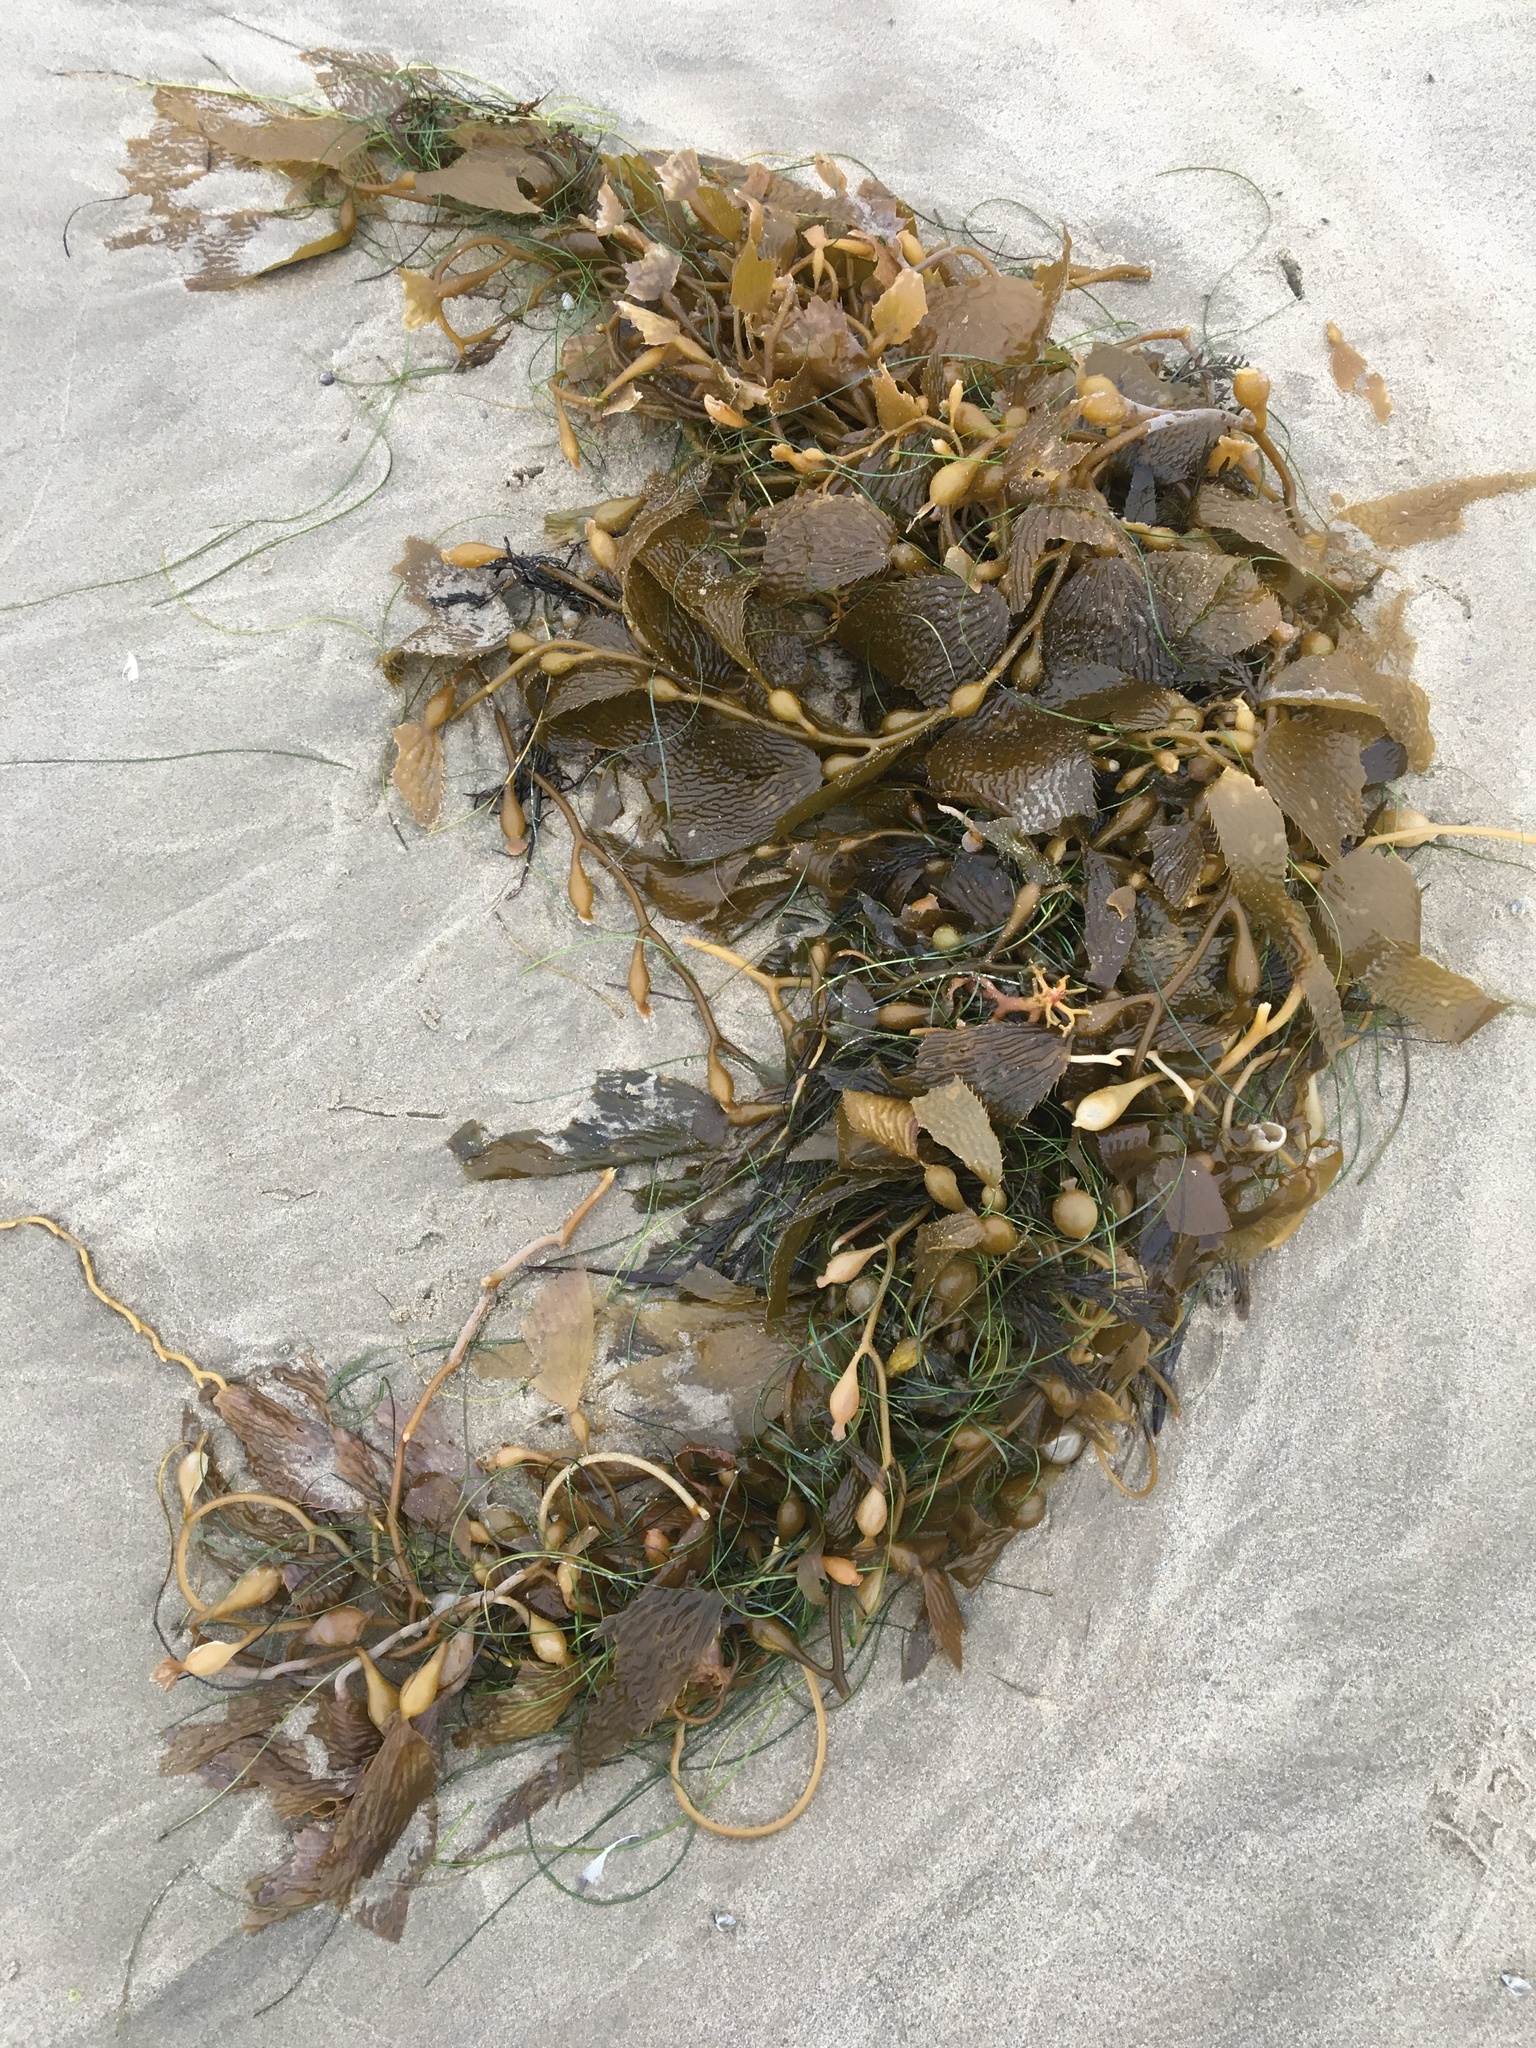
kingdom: Chromista
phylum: Ochrophyta
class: Phaeophyceae
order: Laminariales
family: Laminariaceae
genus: Macrocystis
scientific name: Macrocystis pyrifera
